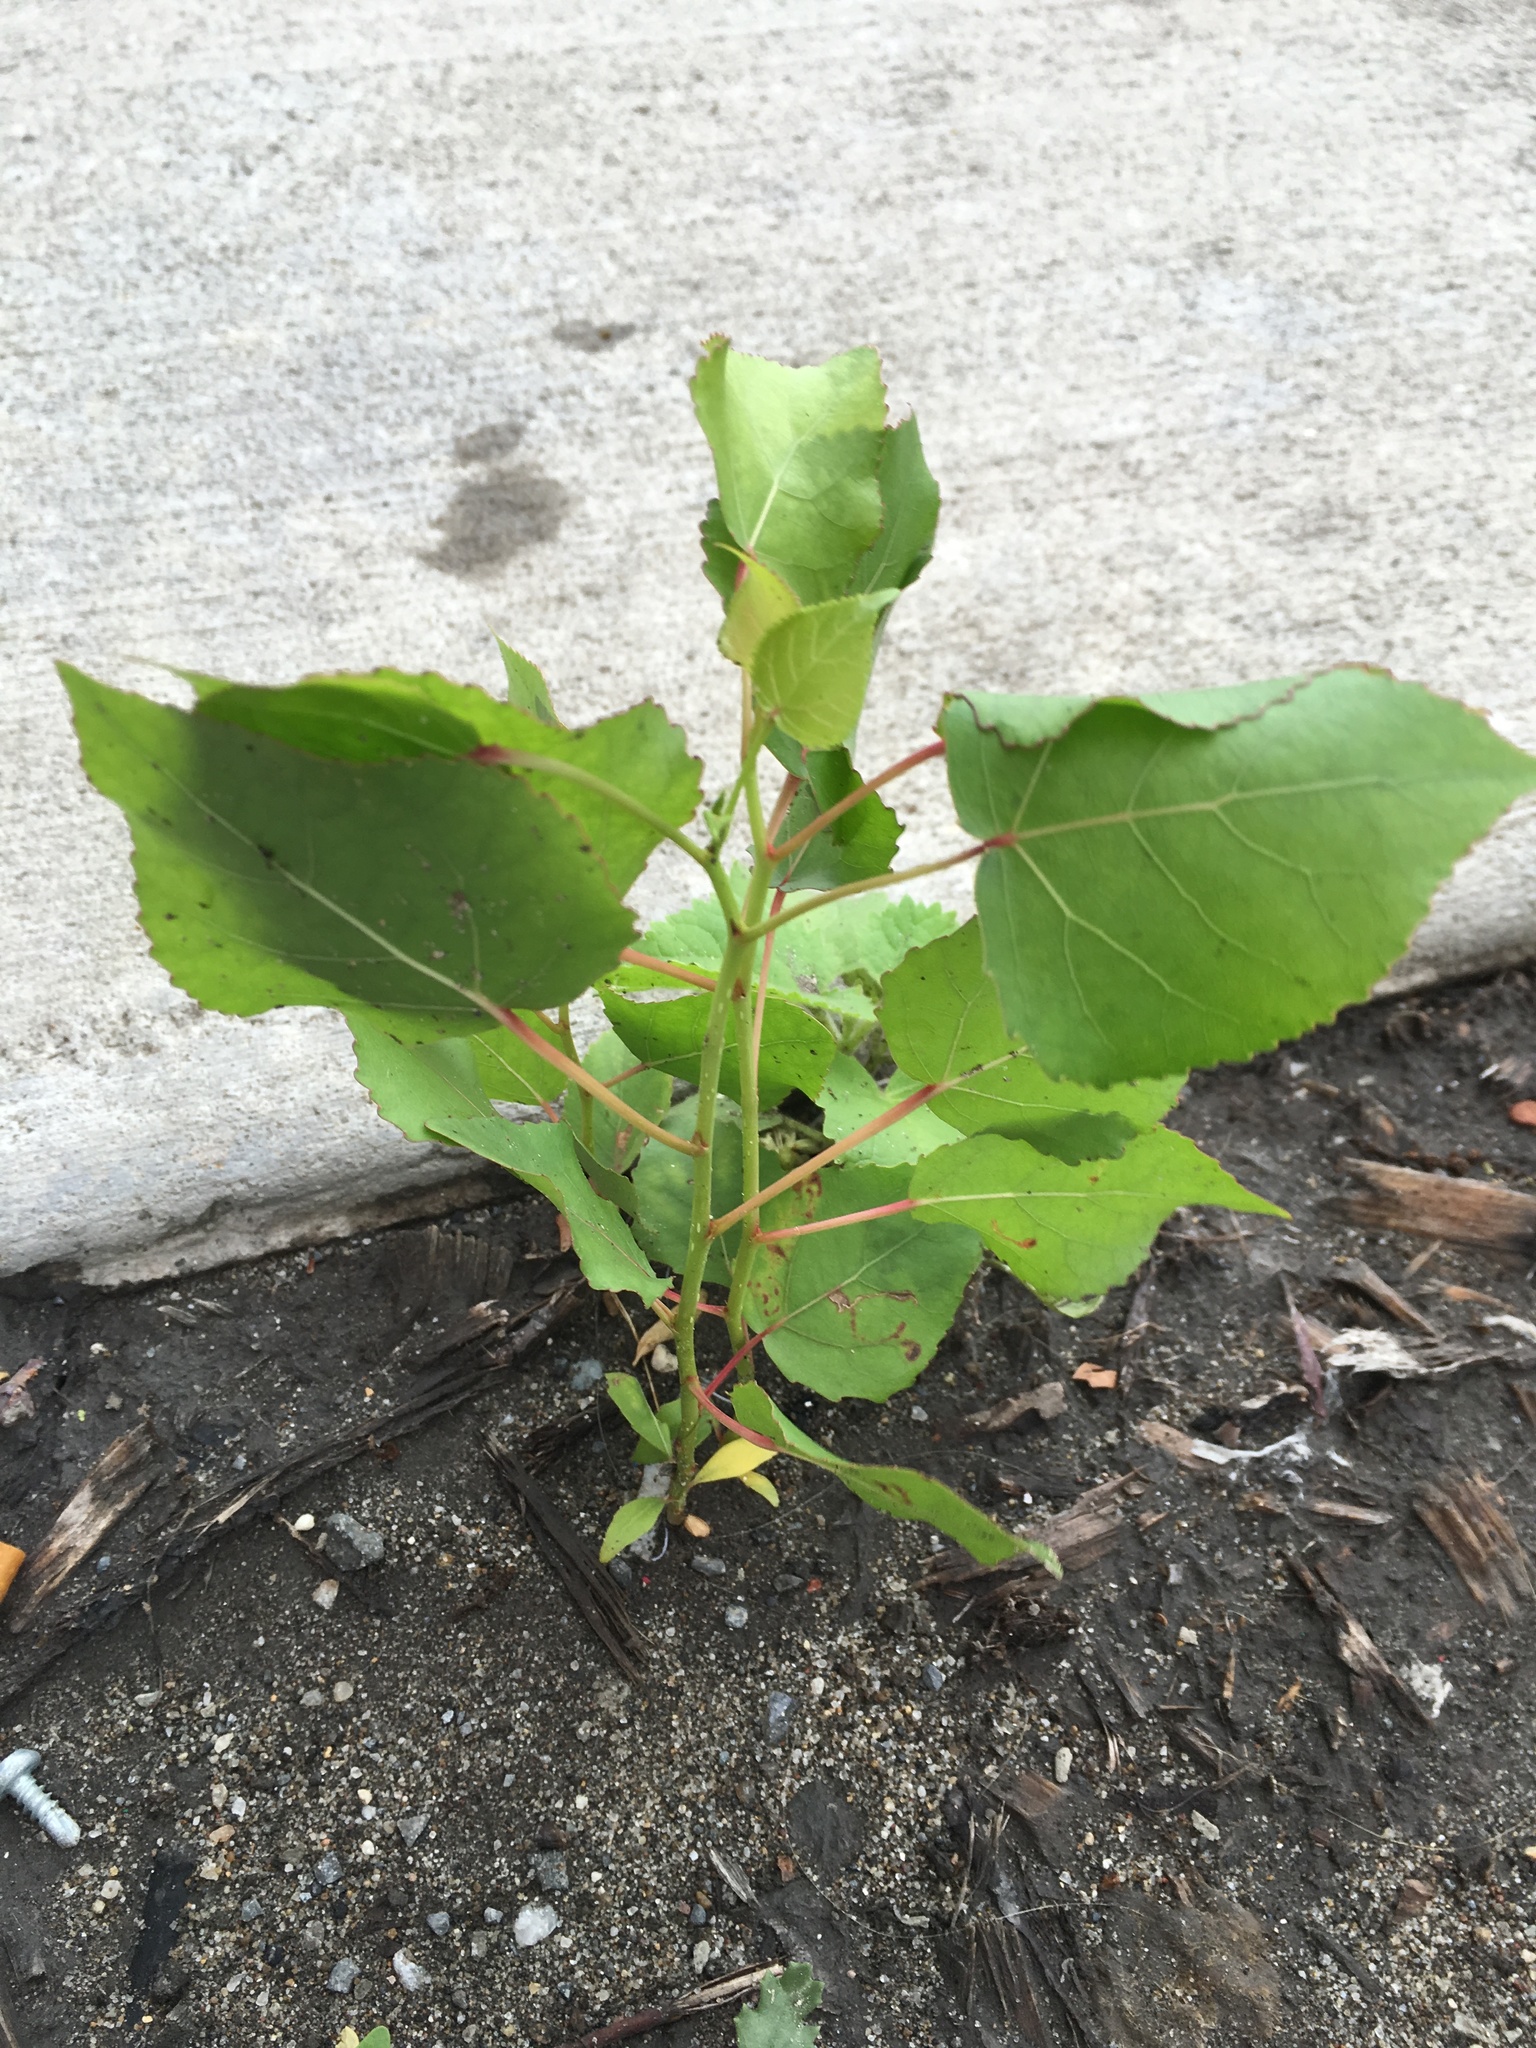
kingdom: Plantae
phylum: Tracheophyta
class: Magnoliopsida
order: Malpighiales
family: Salicaceae
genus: Populus
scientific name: Populus deltoides
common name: Eastern cottonwood
